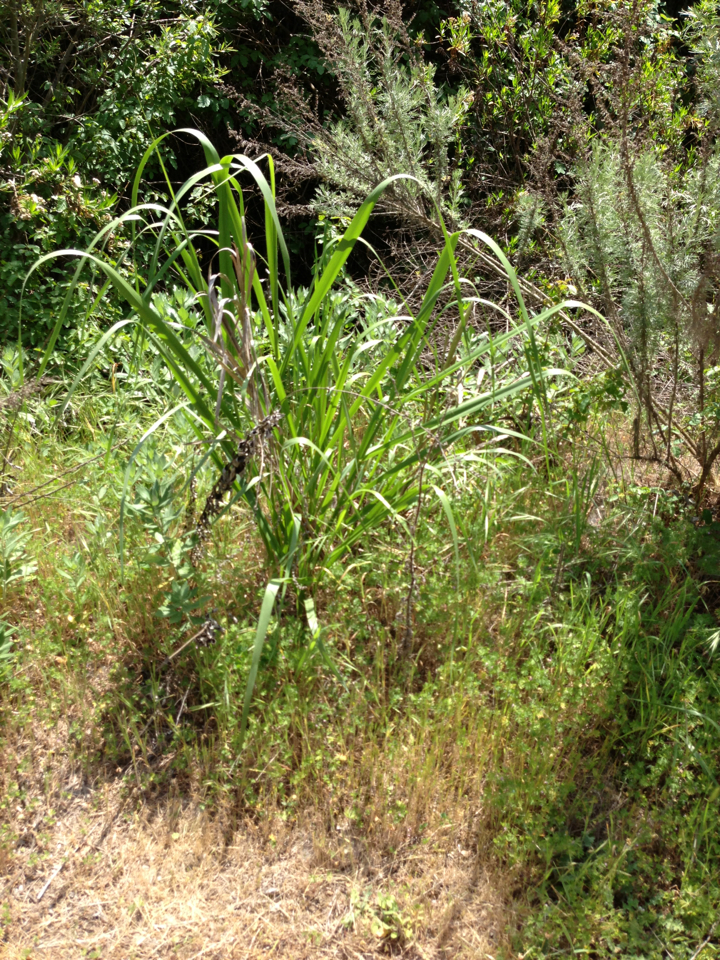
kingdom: Plantae
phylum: Tracheophyta
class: Magnoliopsida
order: Asterales
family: Asteraceae
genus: Artemisia
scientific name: Artemisia californica
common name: California sagebrush
